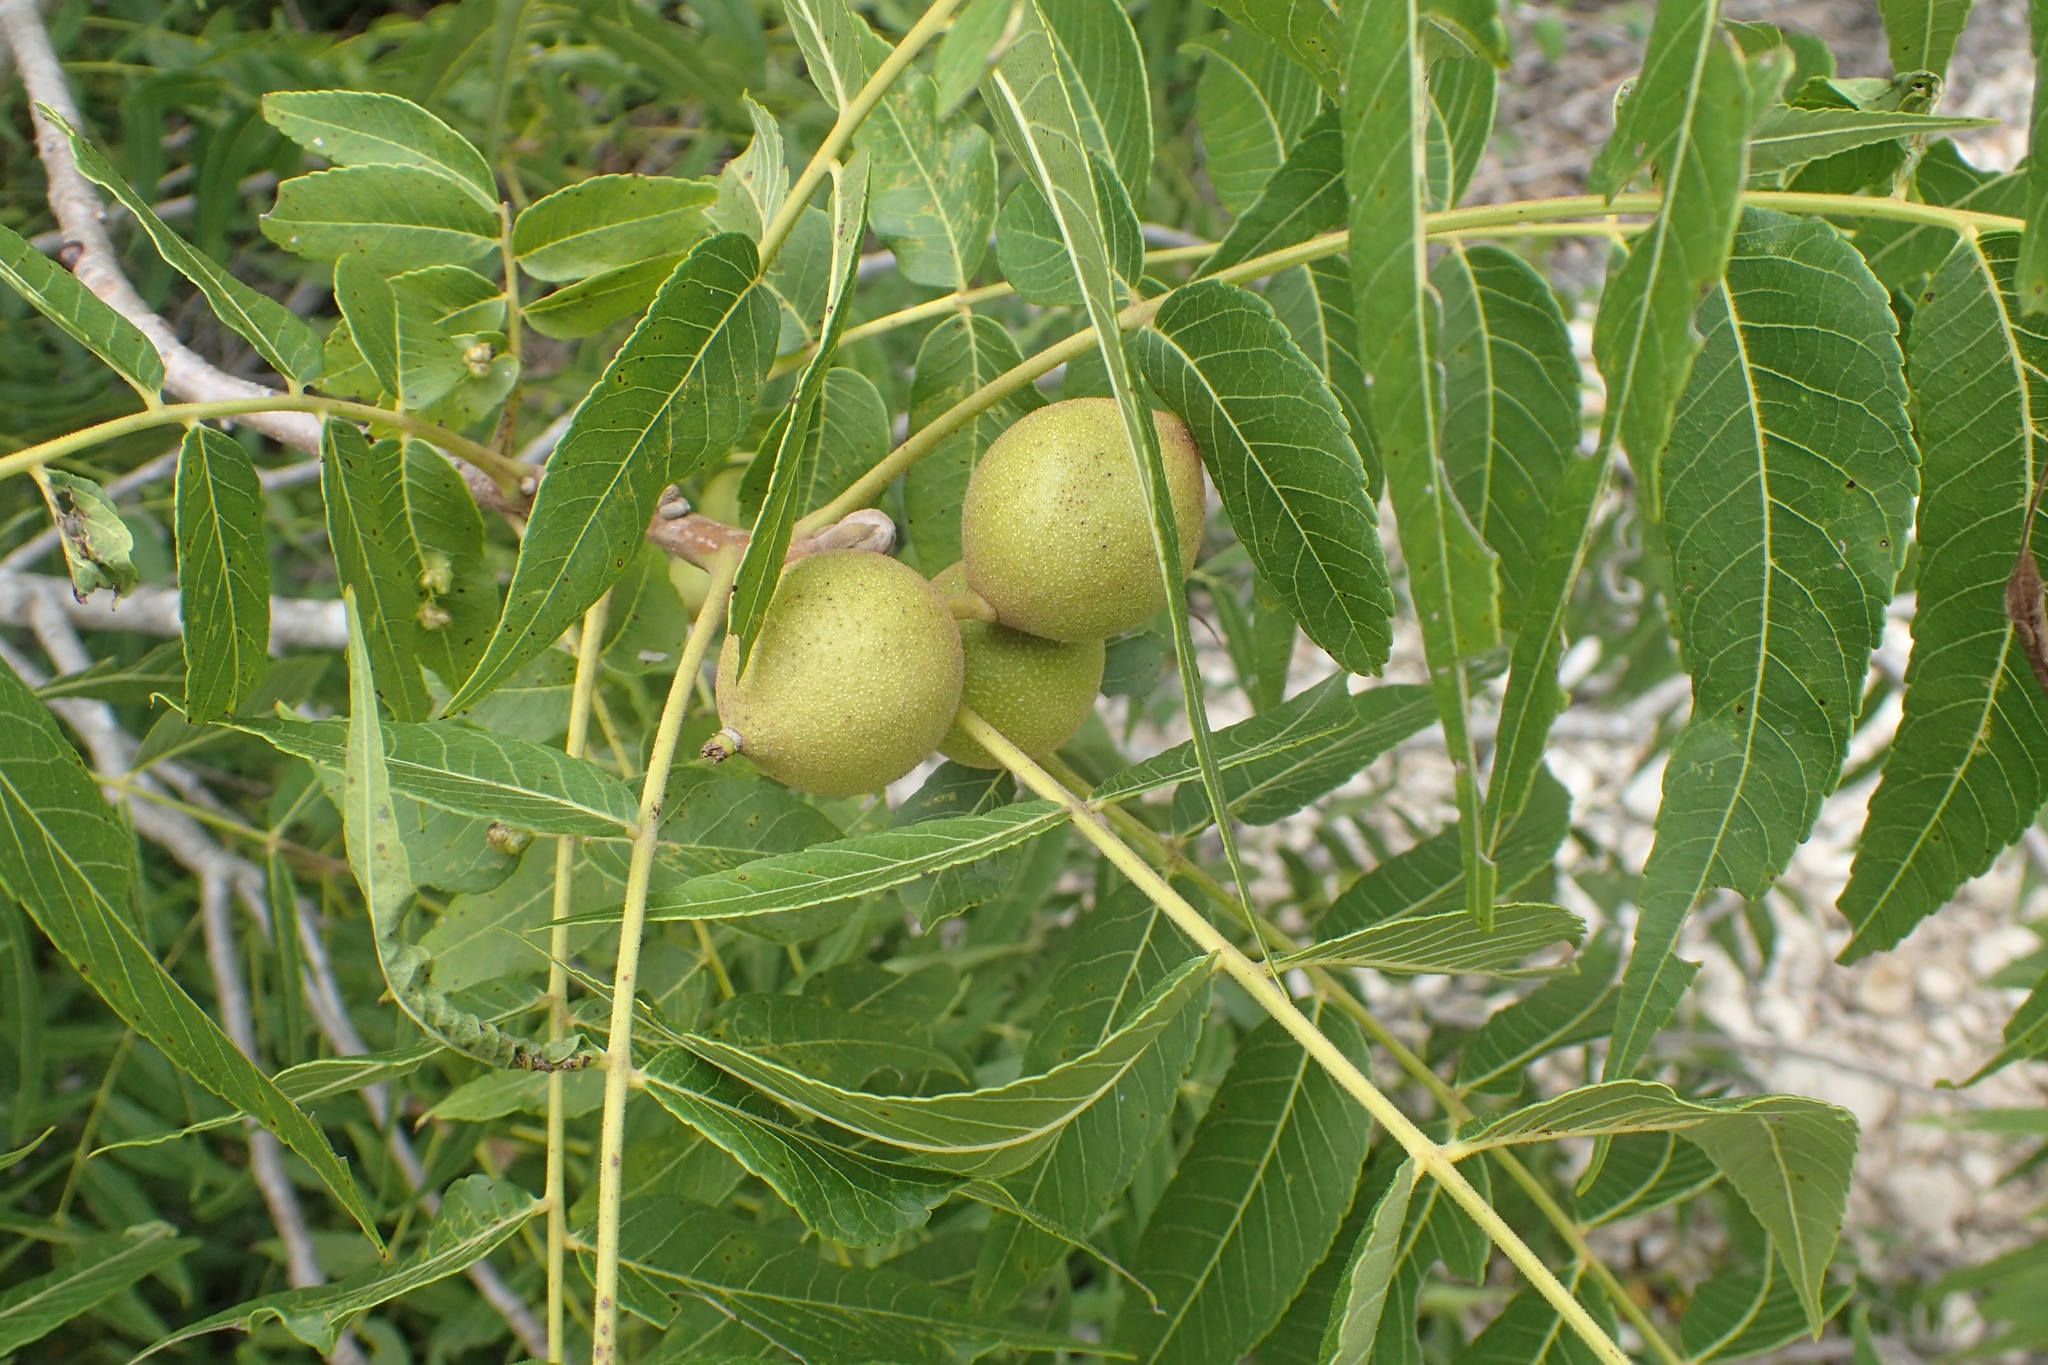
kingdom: Plantae
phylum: Tracheophyta
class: Magnoliopsida
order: Fagales
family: Juglandaceae
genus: Juglans
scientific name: Juglans nigra
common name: Black walnut
